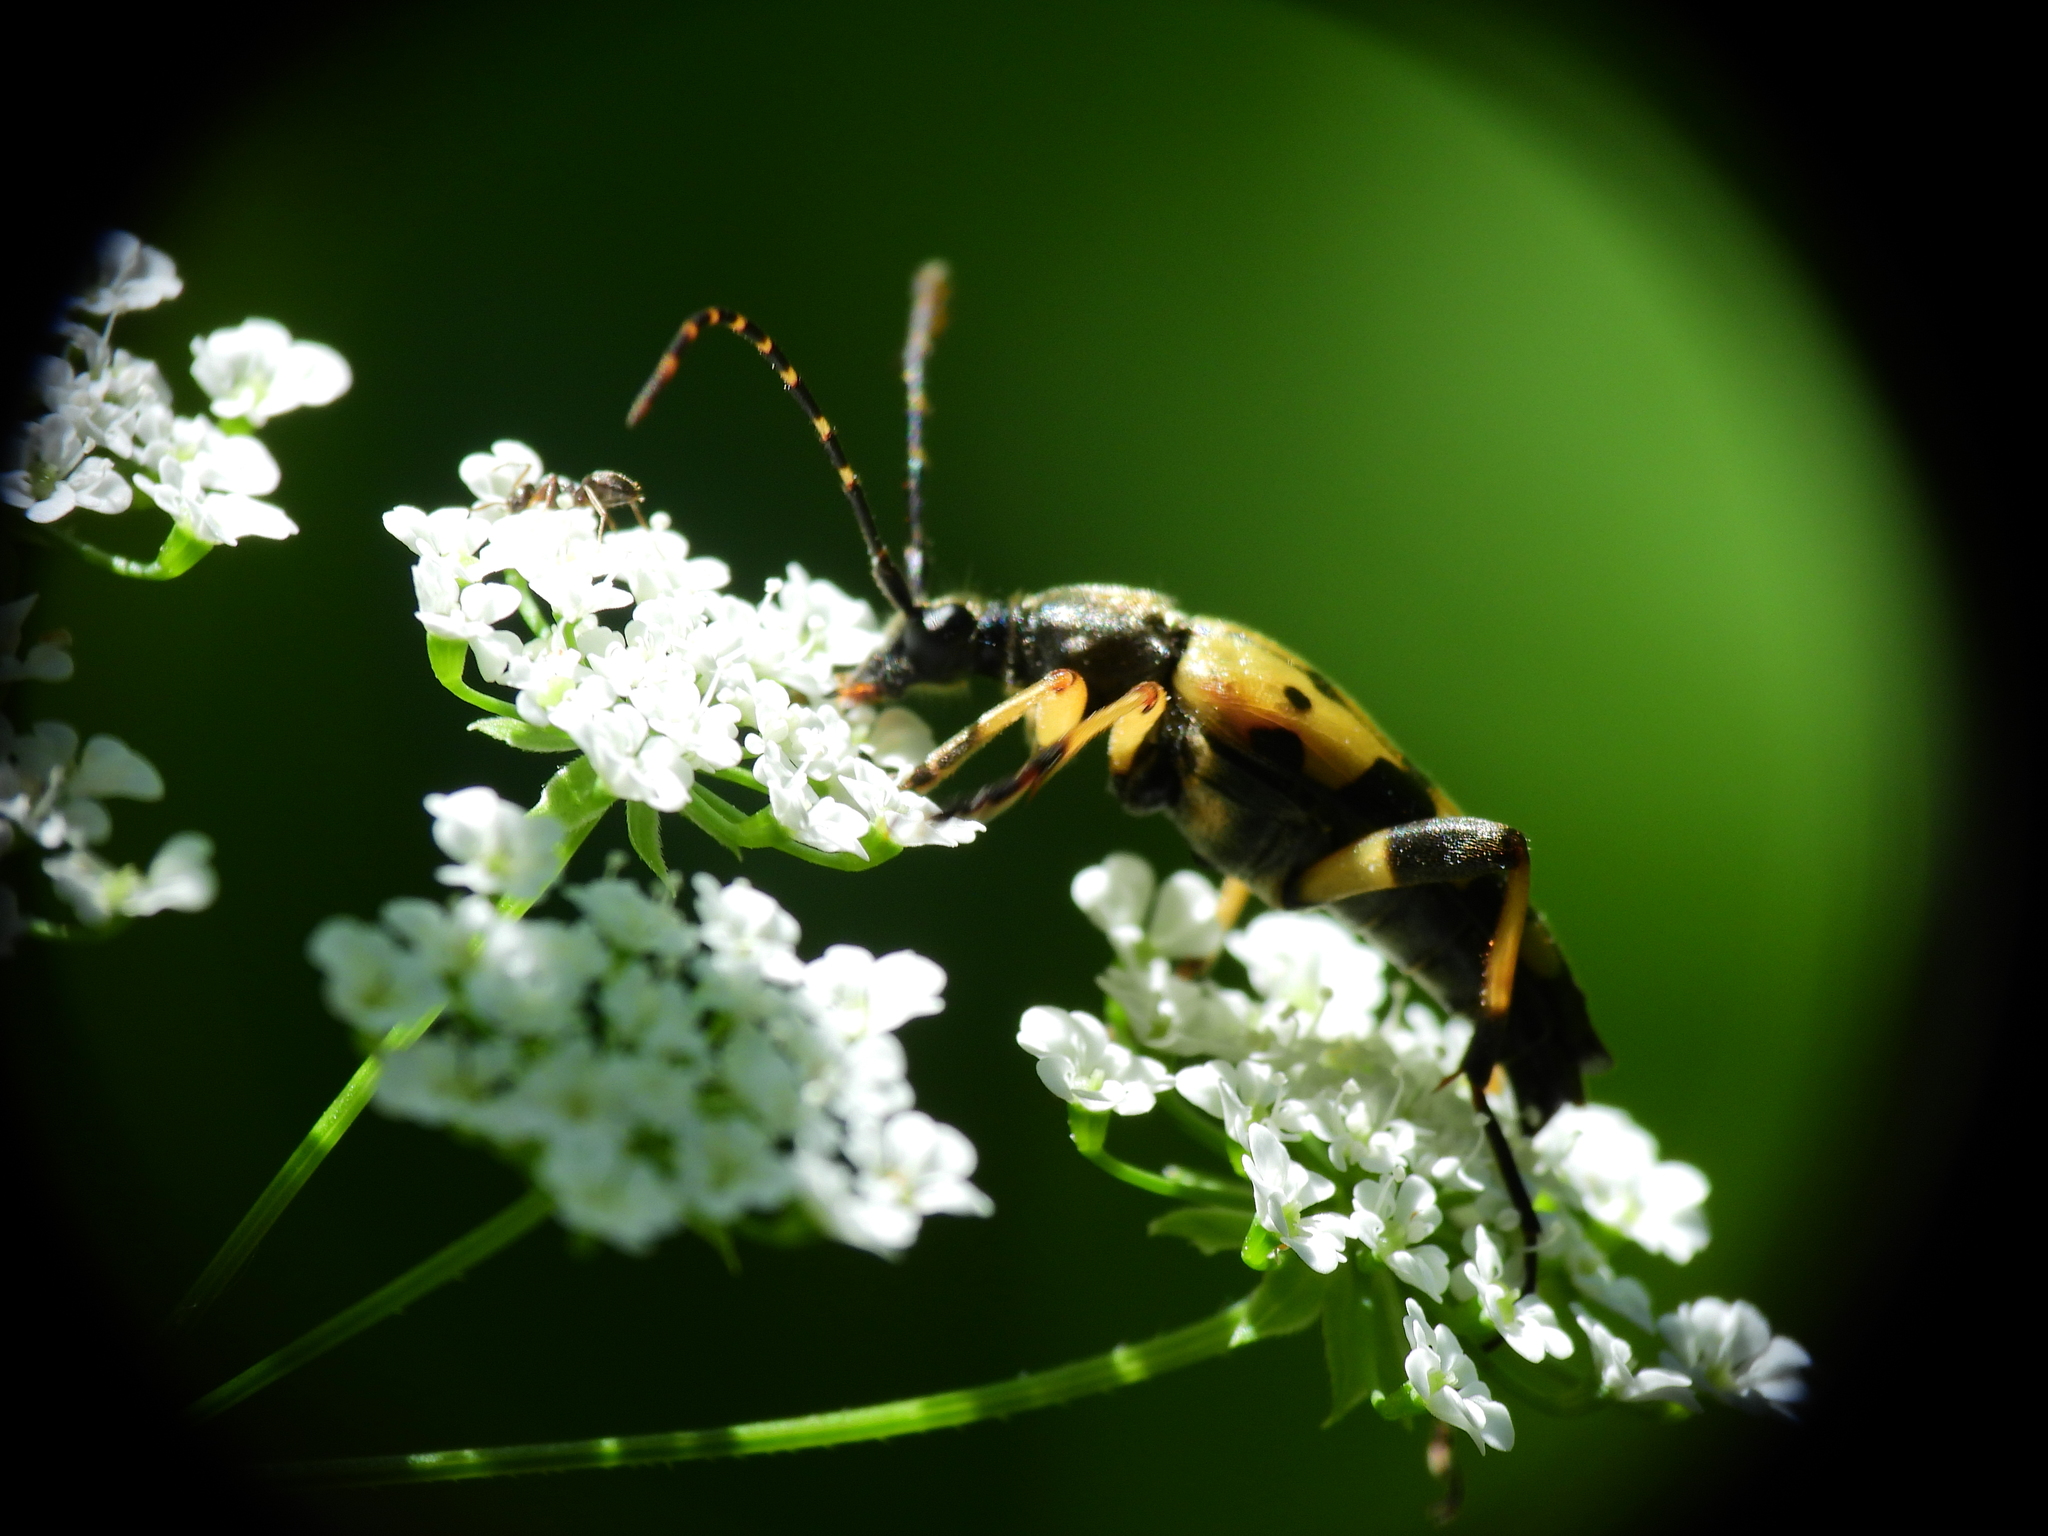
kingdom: Animalia
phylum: Arthropoda
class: Insecta
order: Coleoptera
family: Cerambycidae
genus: Rutpela
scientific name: Rutpela maculata
